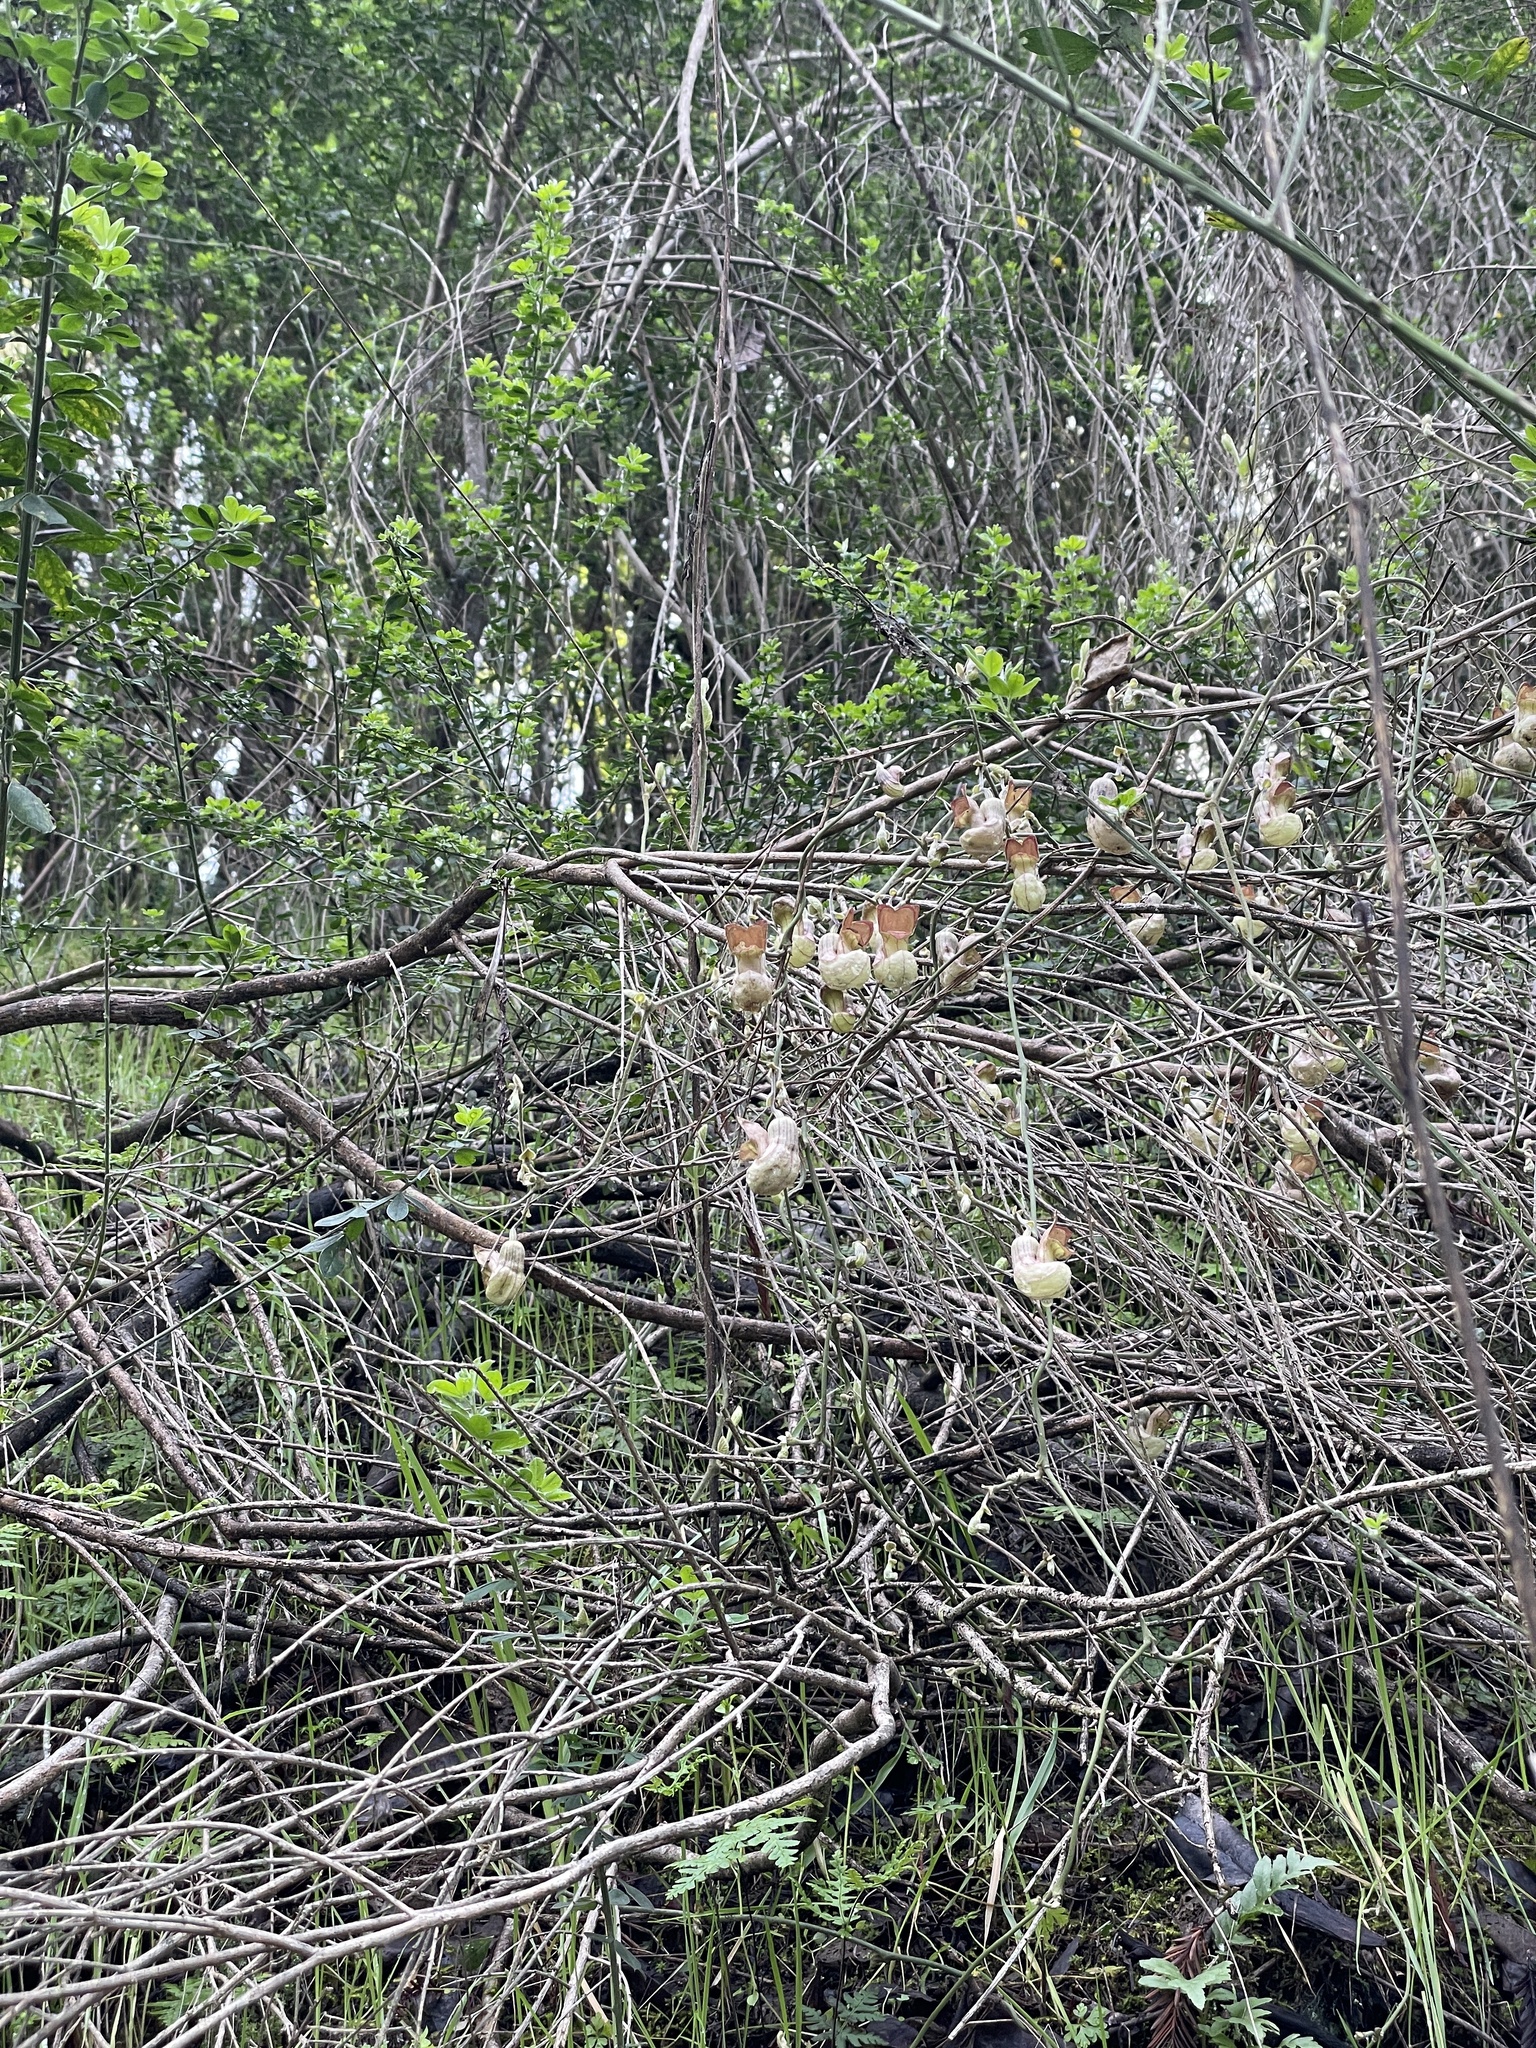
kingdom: Plantae
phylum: Tracheophyta
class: Magnoliopsida
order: Piperales
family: Aristolochiaceae
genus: Isotrema
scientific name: Isotrema californicum
